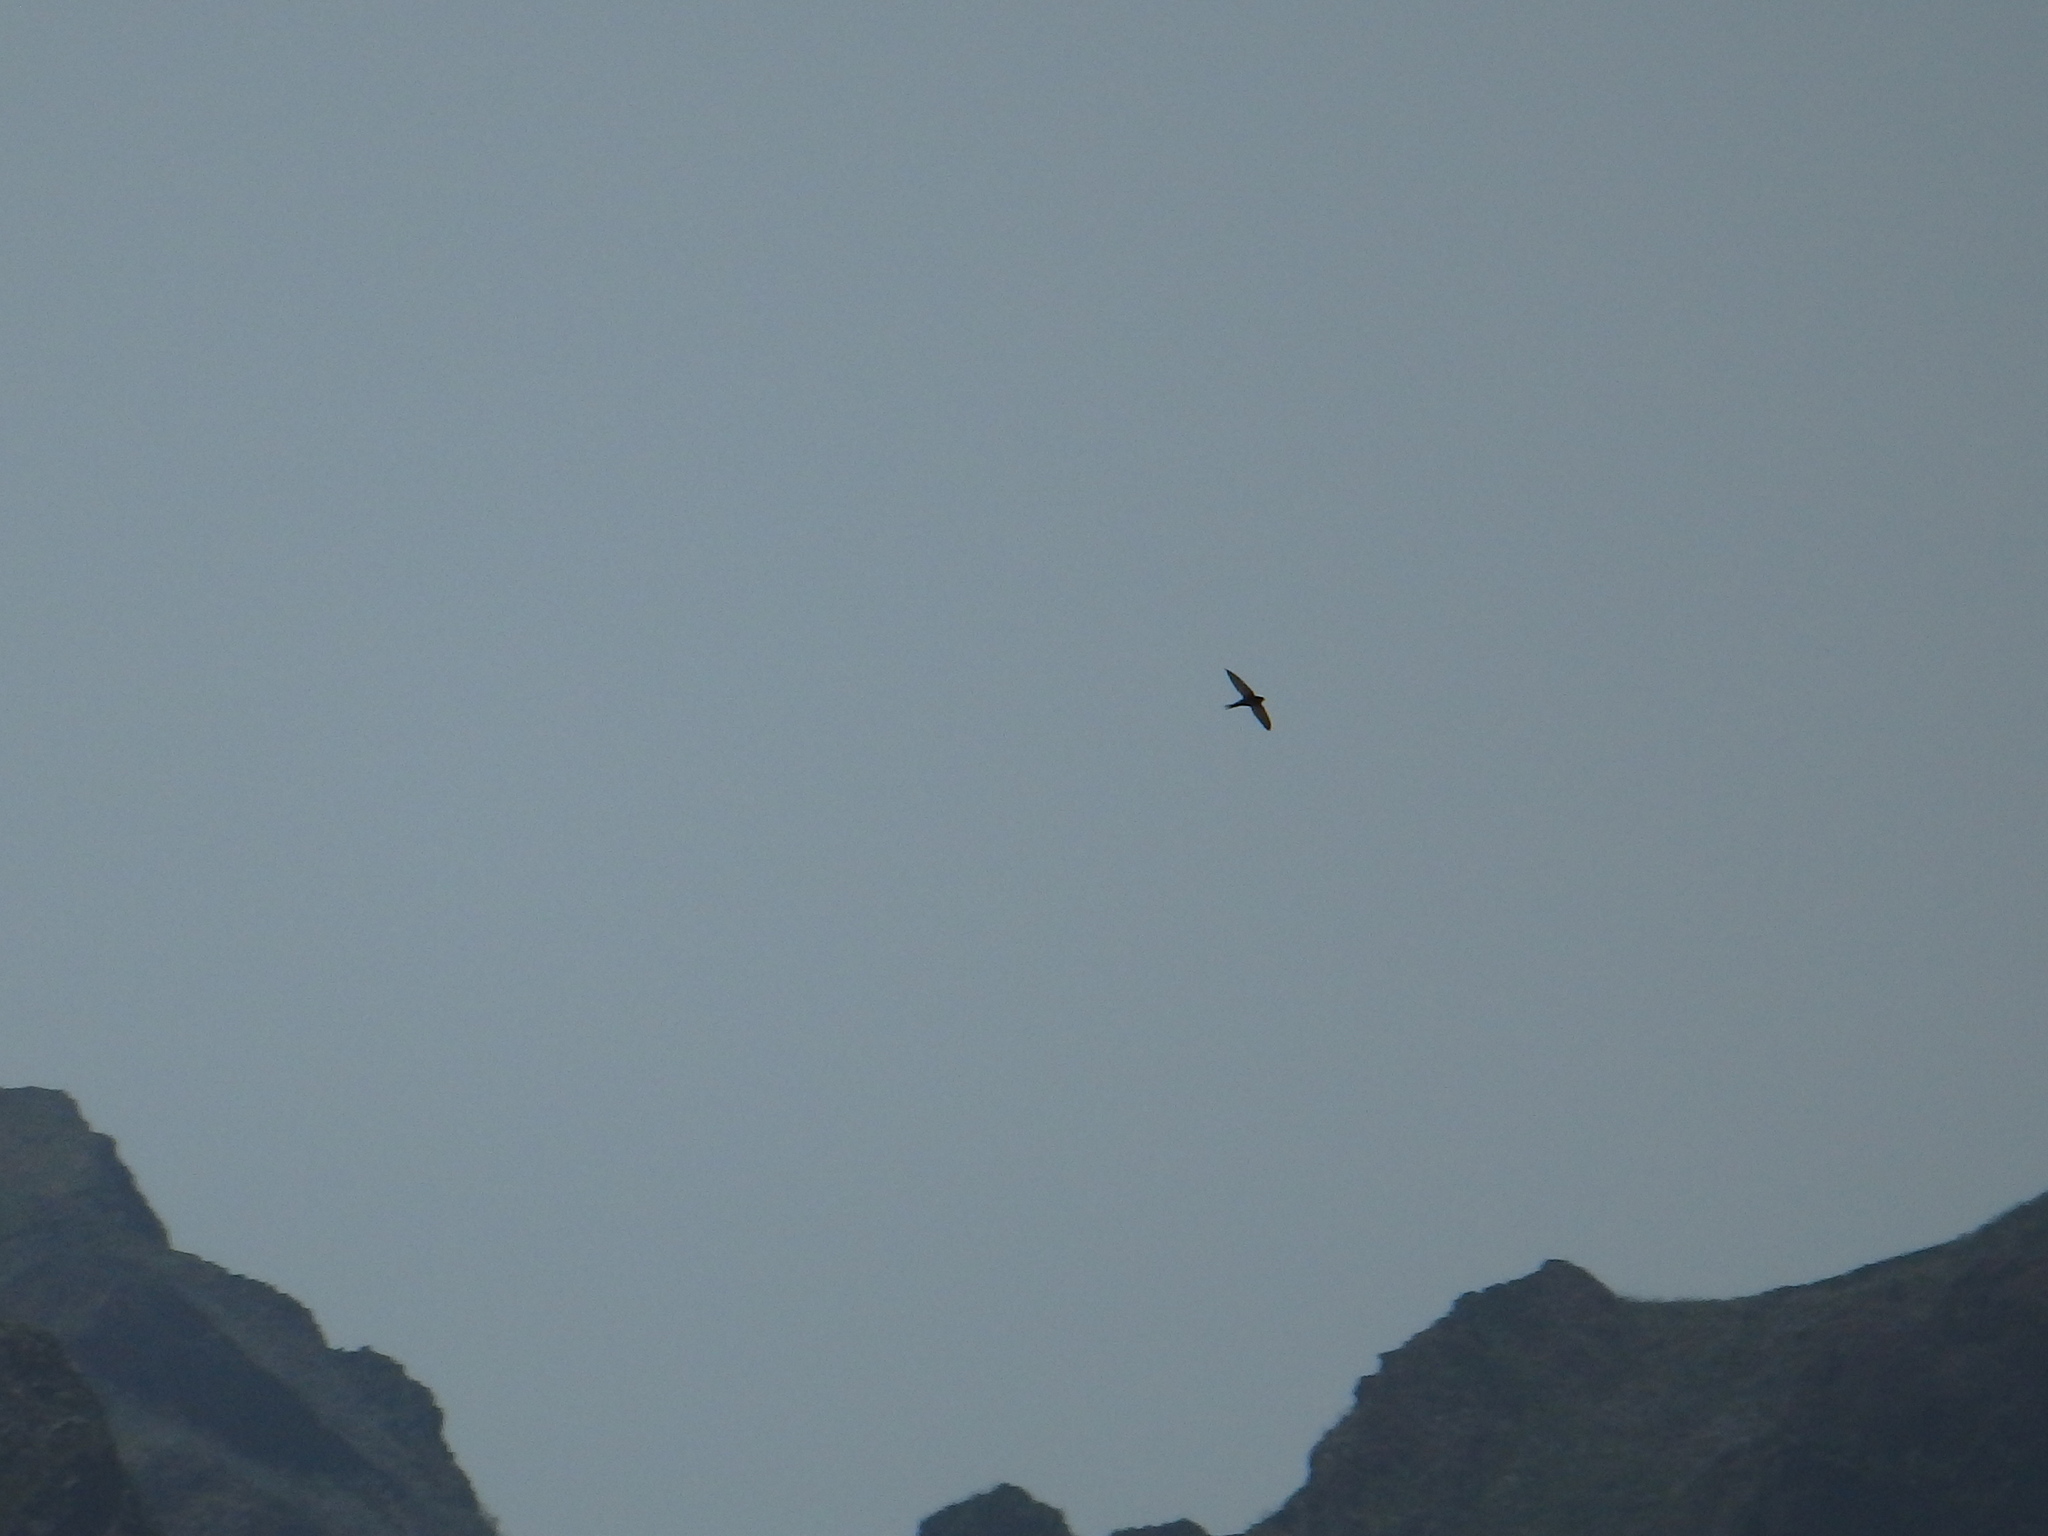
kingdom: Animalia
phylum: Chordata
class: Aves
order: Apodiformes
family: Apodidae
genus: Apus
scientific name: Apus unicolor
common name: Plain swift
